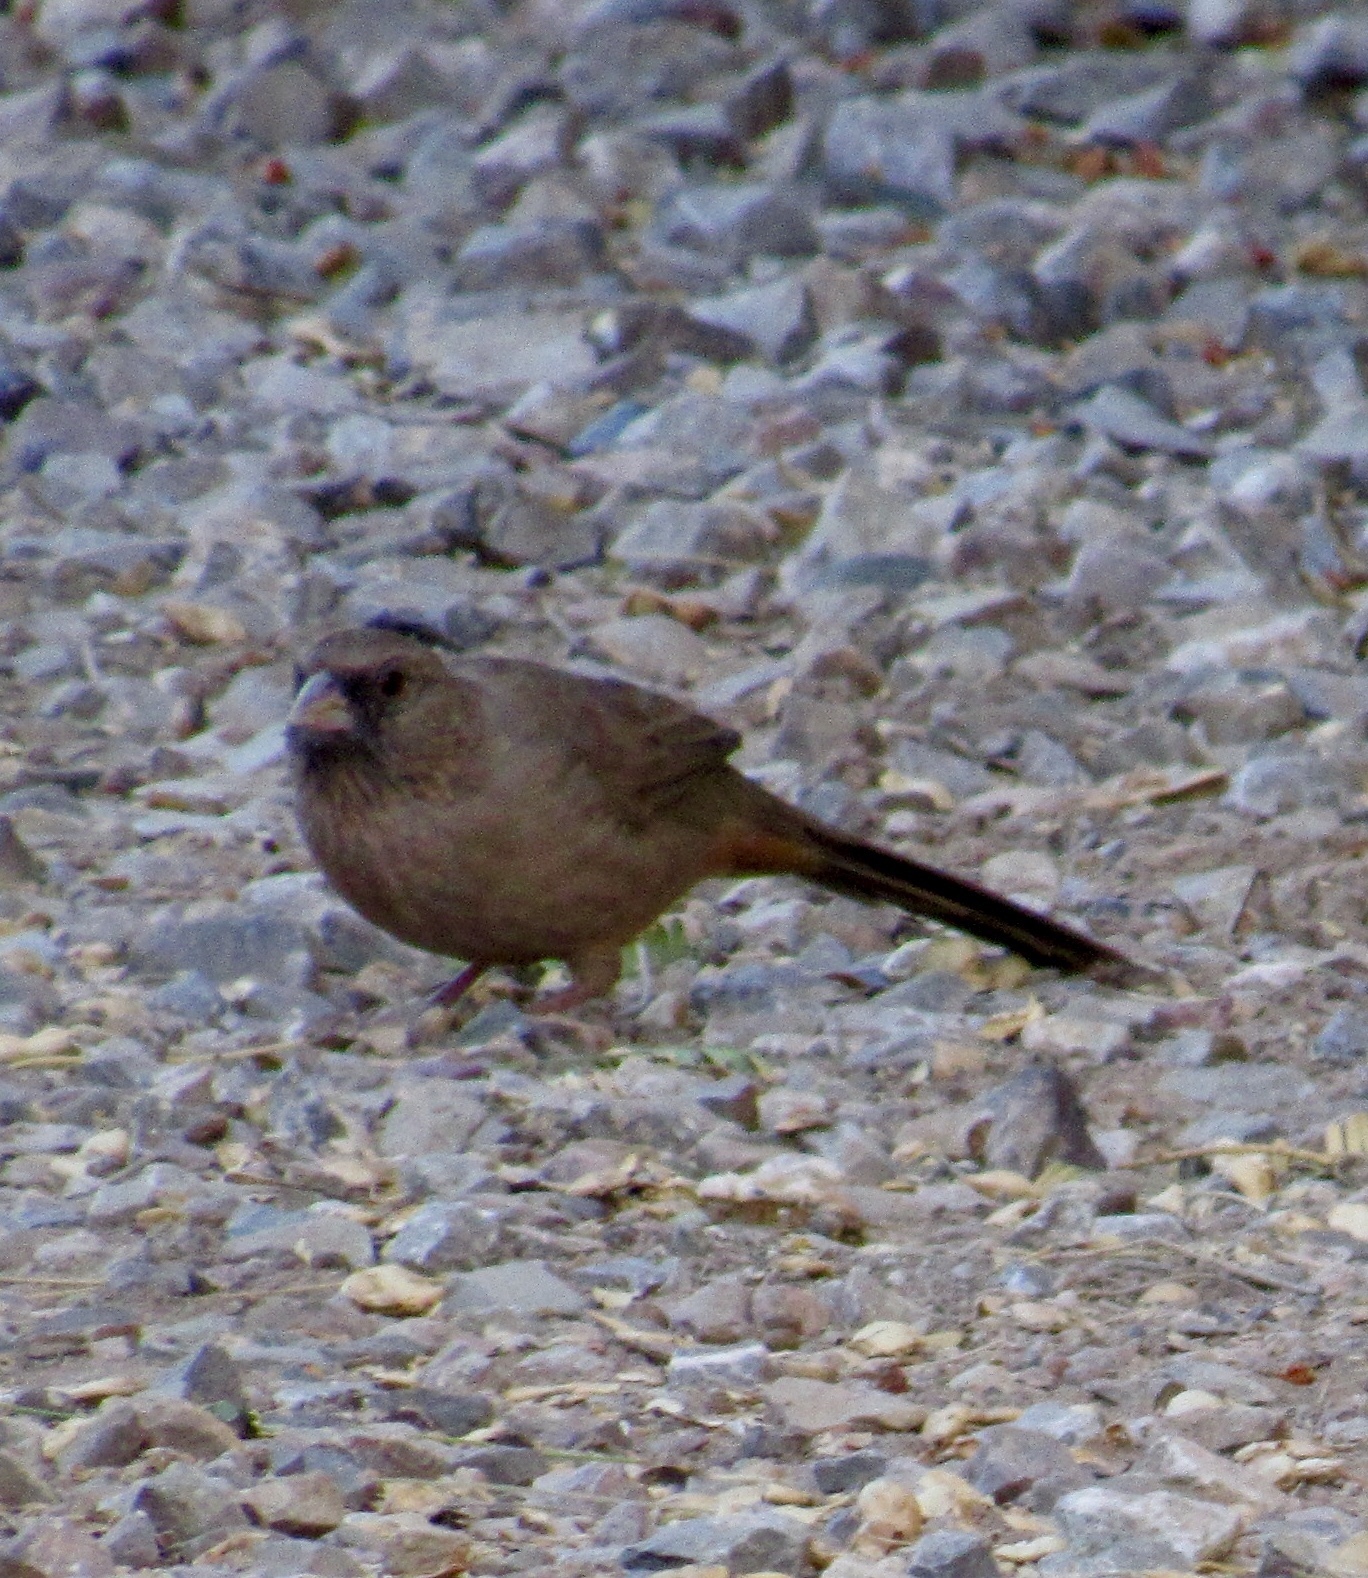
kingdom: Animalia
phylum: Chordata
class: Aves
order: Passeriformes
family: Passerellidae
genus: Melozone
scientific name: Melozone aberti
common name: Abert's towhee
